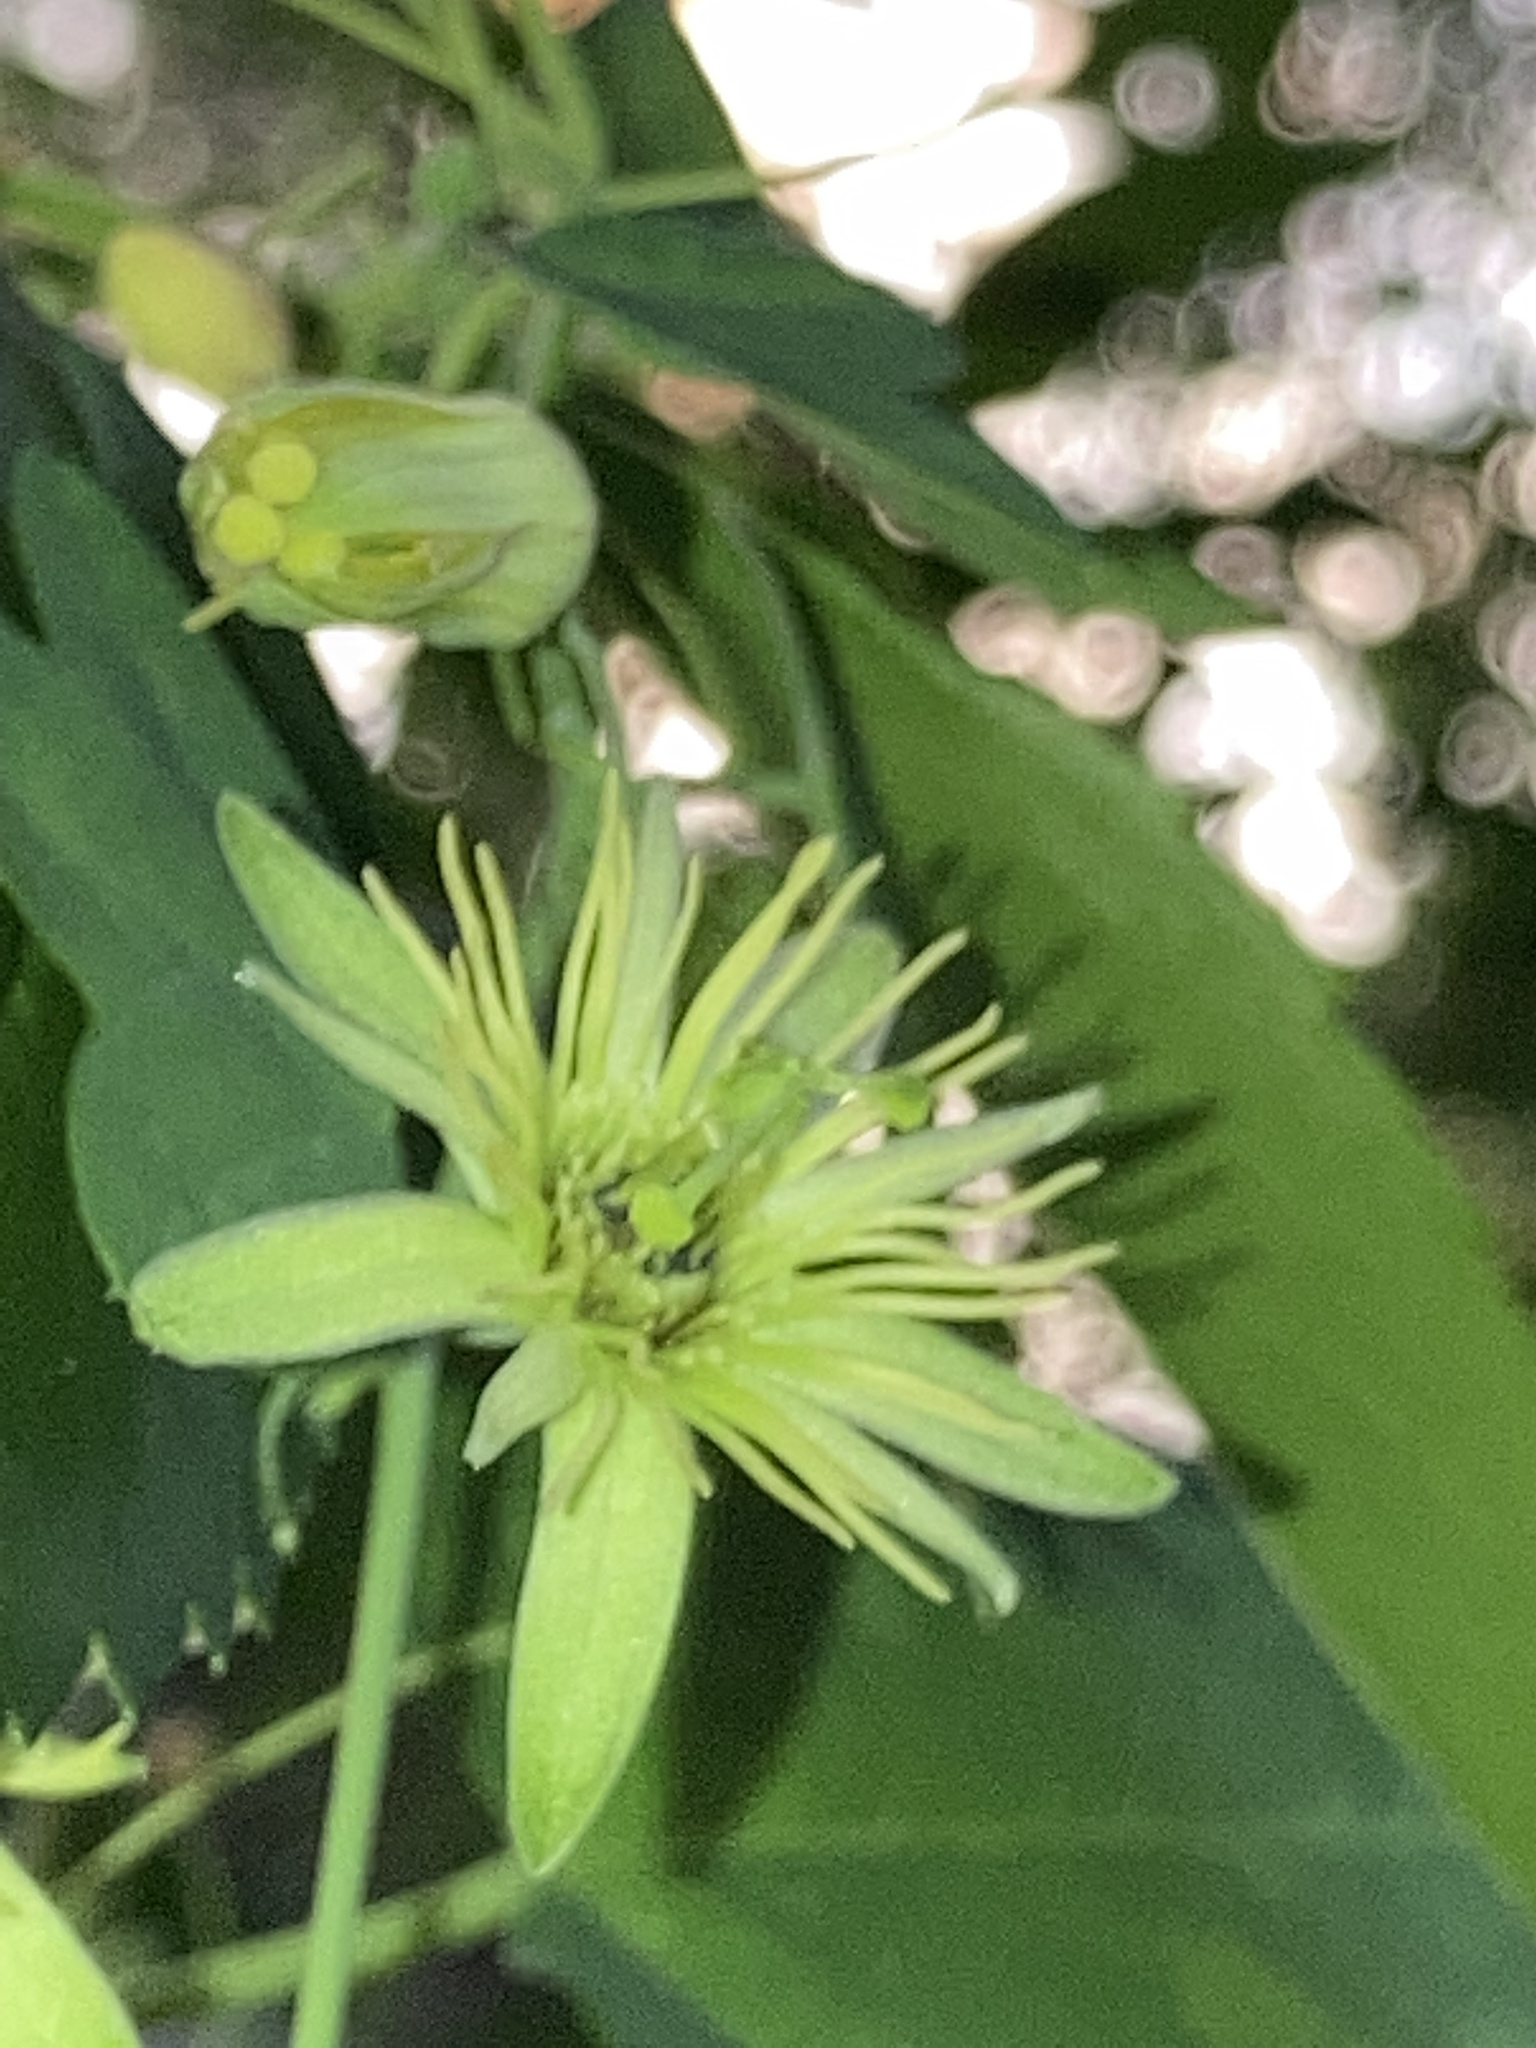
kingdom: Plantae
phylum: Tracheophyta
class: Magnoliopsida
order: Malpighiales
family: Passifloraceae
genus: Passiflora
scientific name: Passiflora lutea
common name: Yellow passionflower
